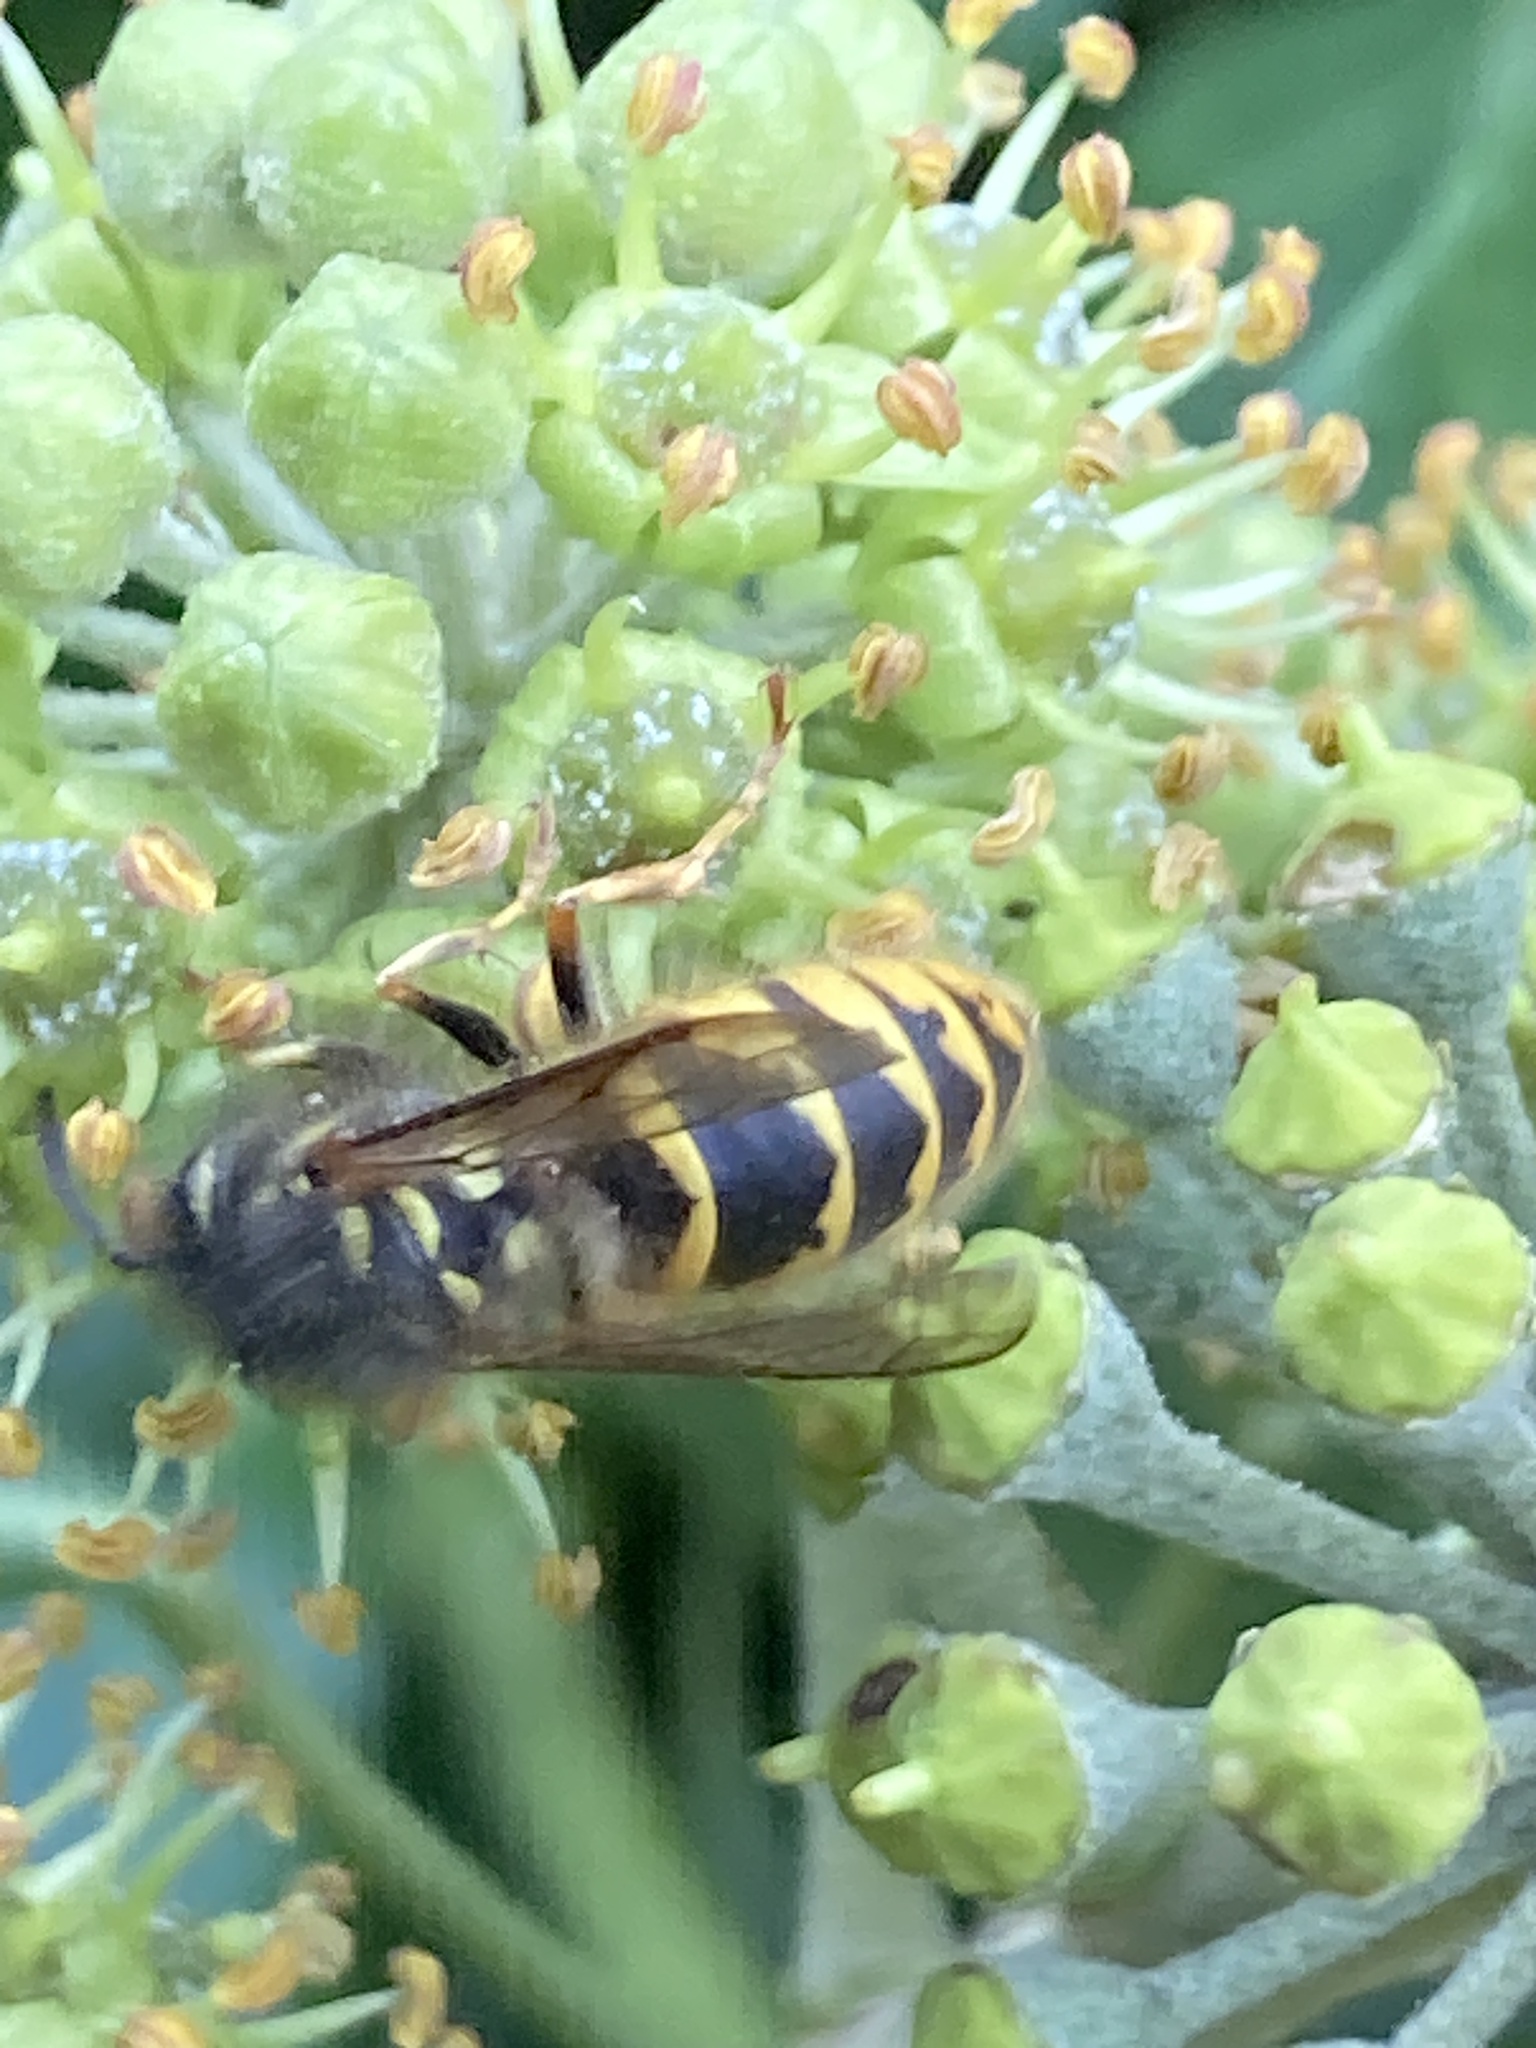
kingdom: Animalia
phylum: Arthropoda
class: Insecta
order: Hymenoptera
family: Vespidae
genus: Vespula
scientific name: Vespula vulgaris
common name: Common wasp
